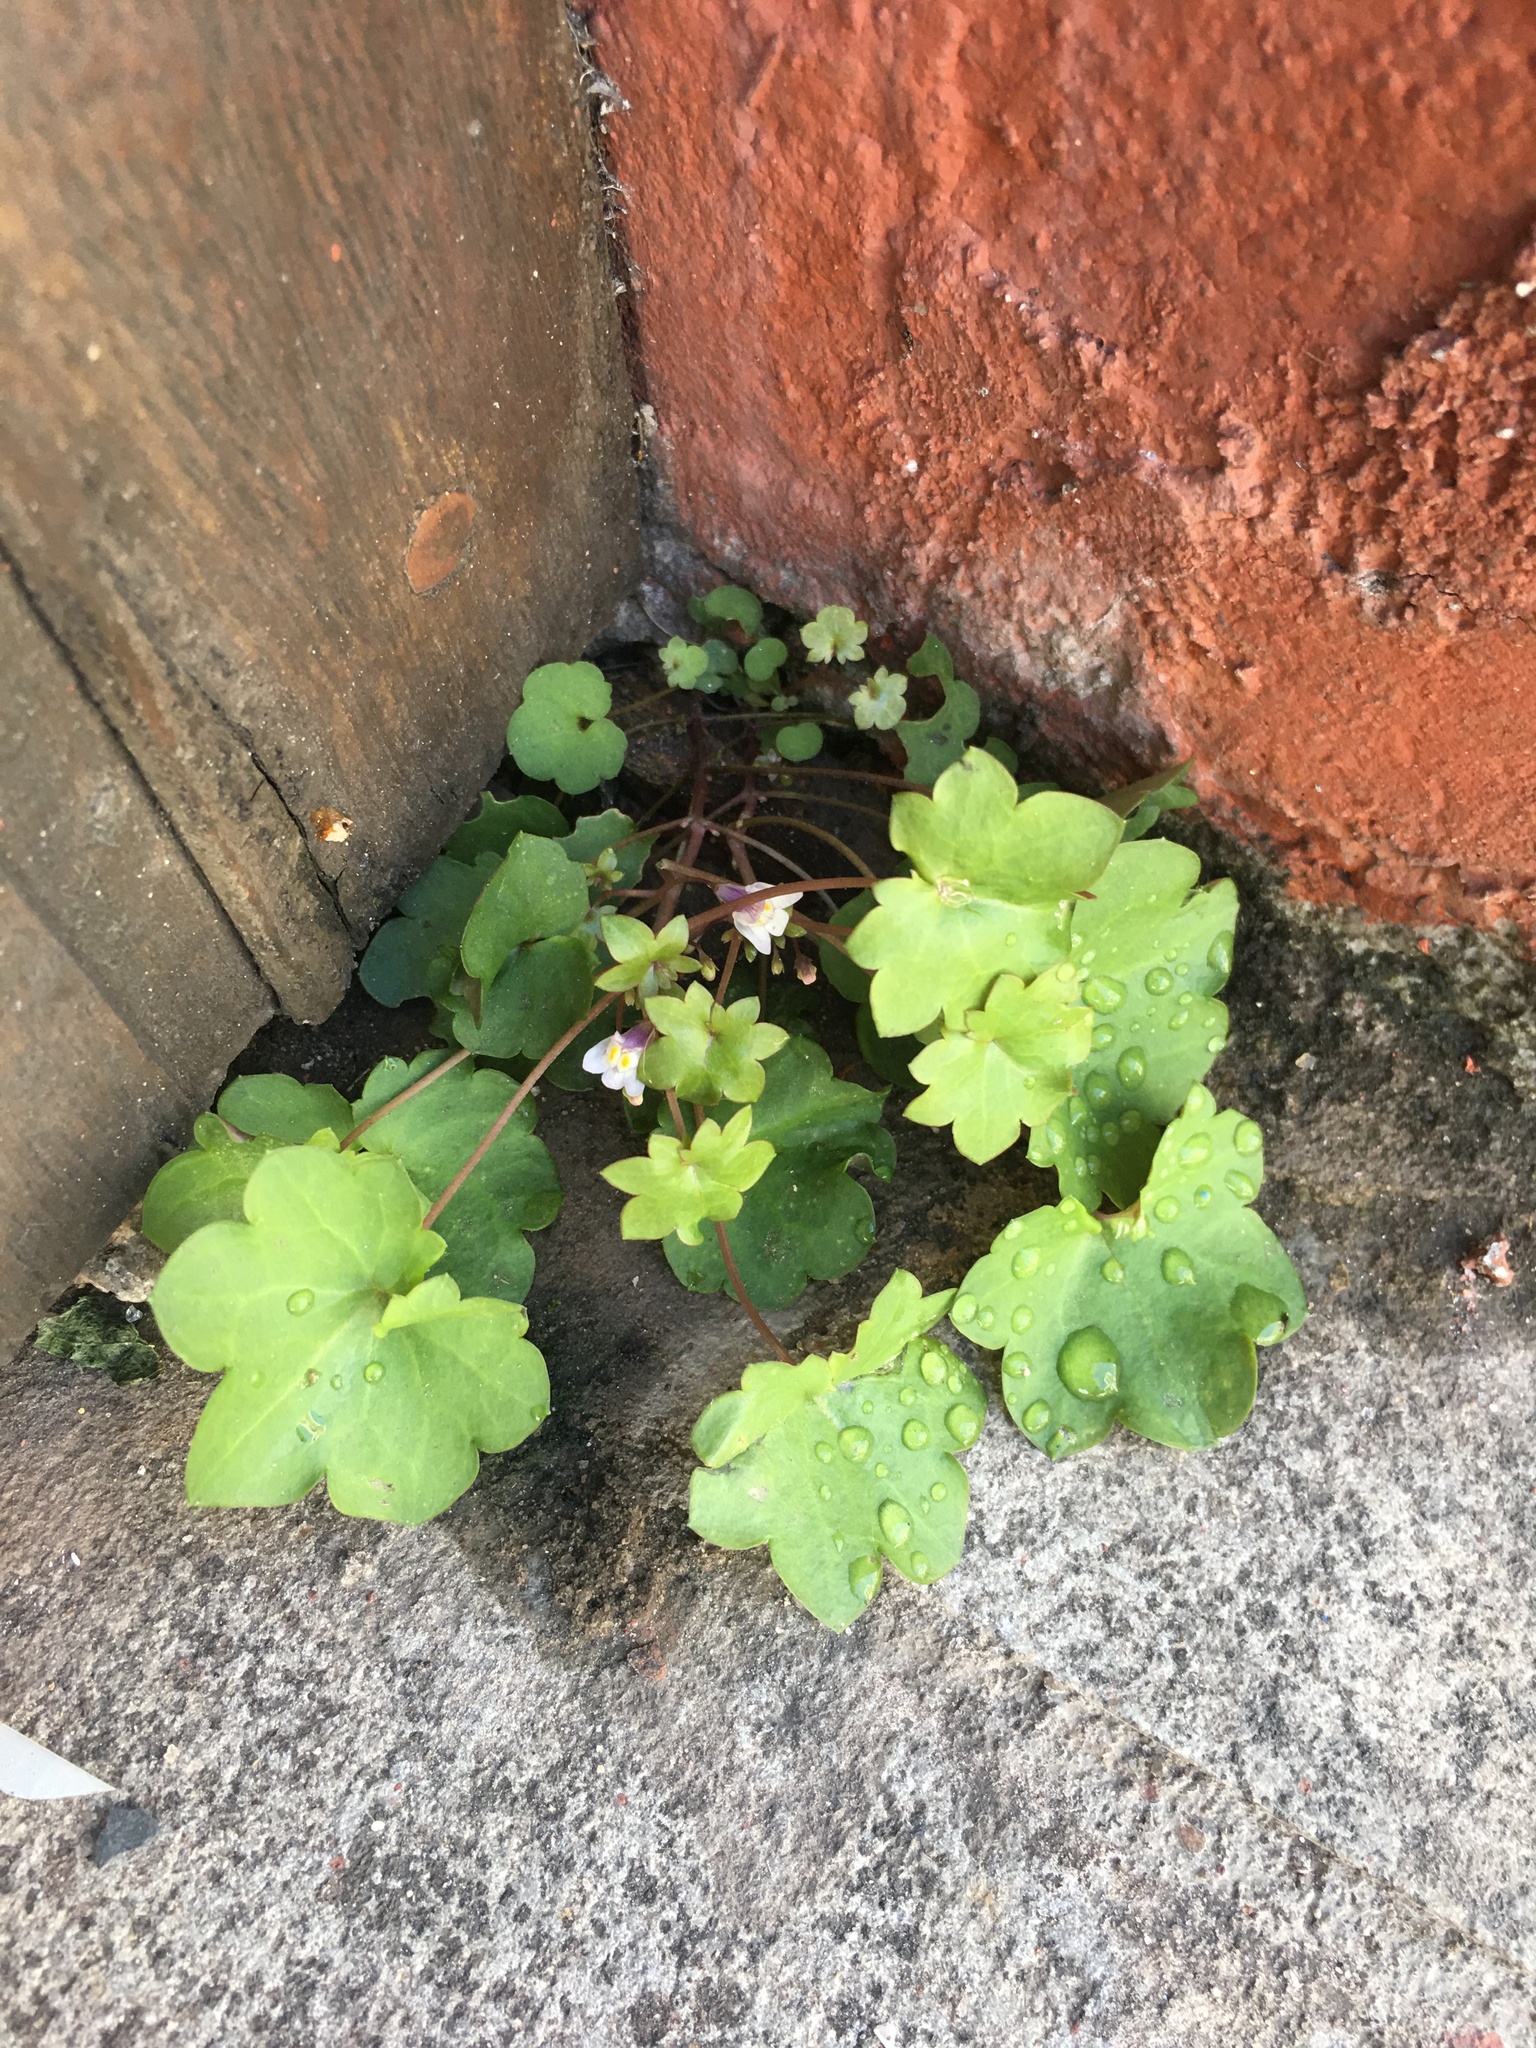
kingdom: Plantae
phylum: Tracheophyta
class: Magnoliopsida
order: Lamiales
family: Plantaginaceae
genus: Cymbalaria
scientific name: Cymbalaria muralis
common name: Ivy-leaved toadflax
